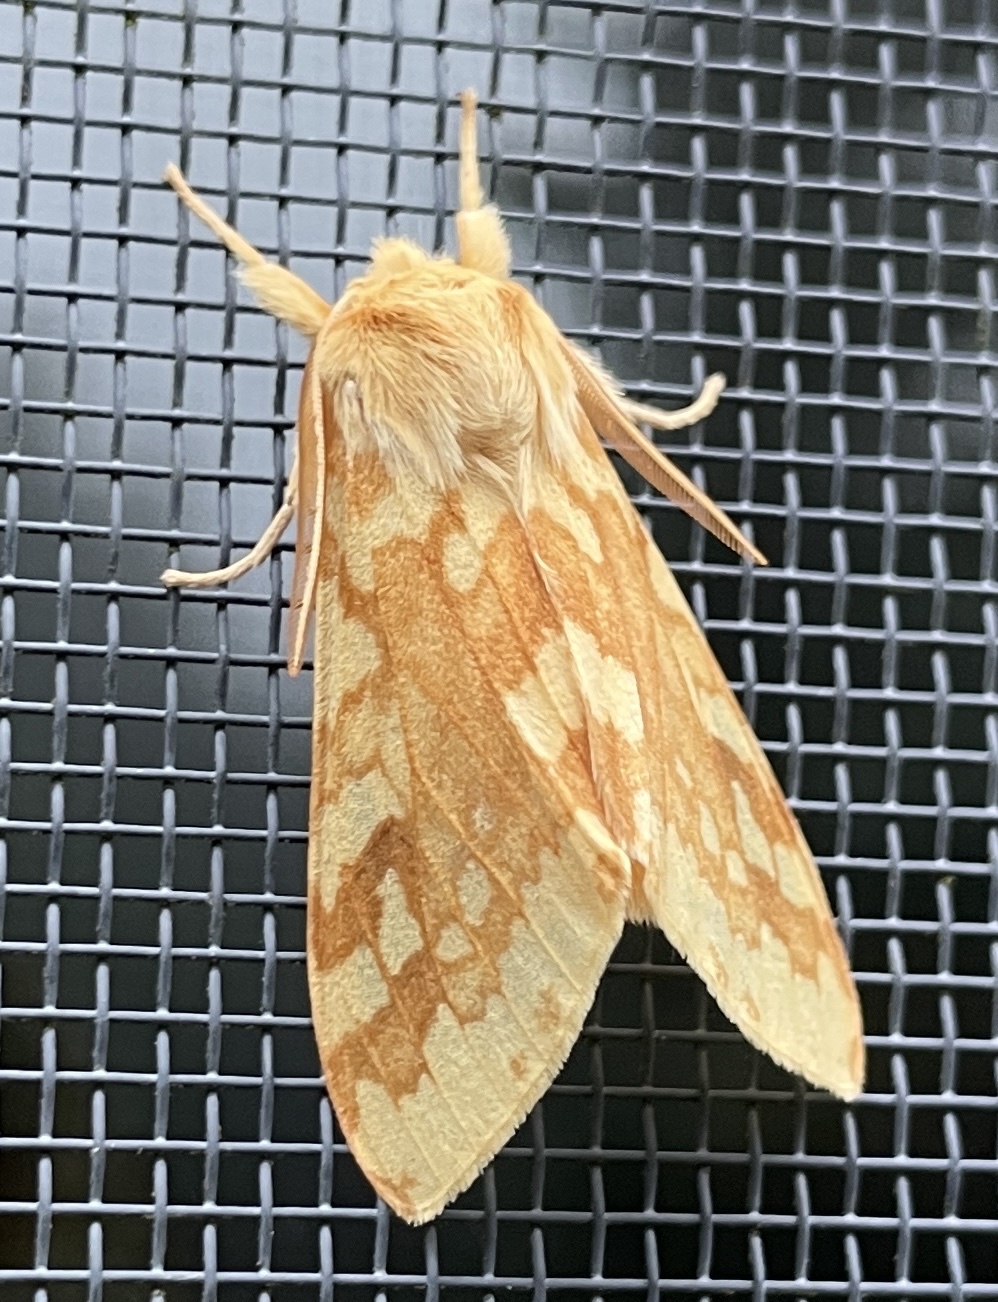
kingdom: Animalia
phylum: Arthropoda
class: Insecta
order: Lepidoptera
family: Erebidae
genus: Lophocampa
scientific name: Lophocampa maculata
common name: Spotted tussock moth
